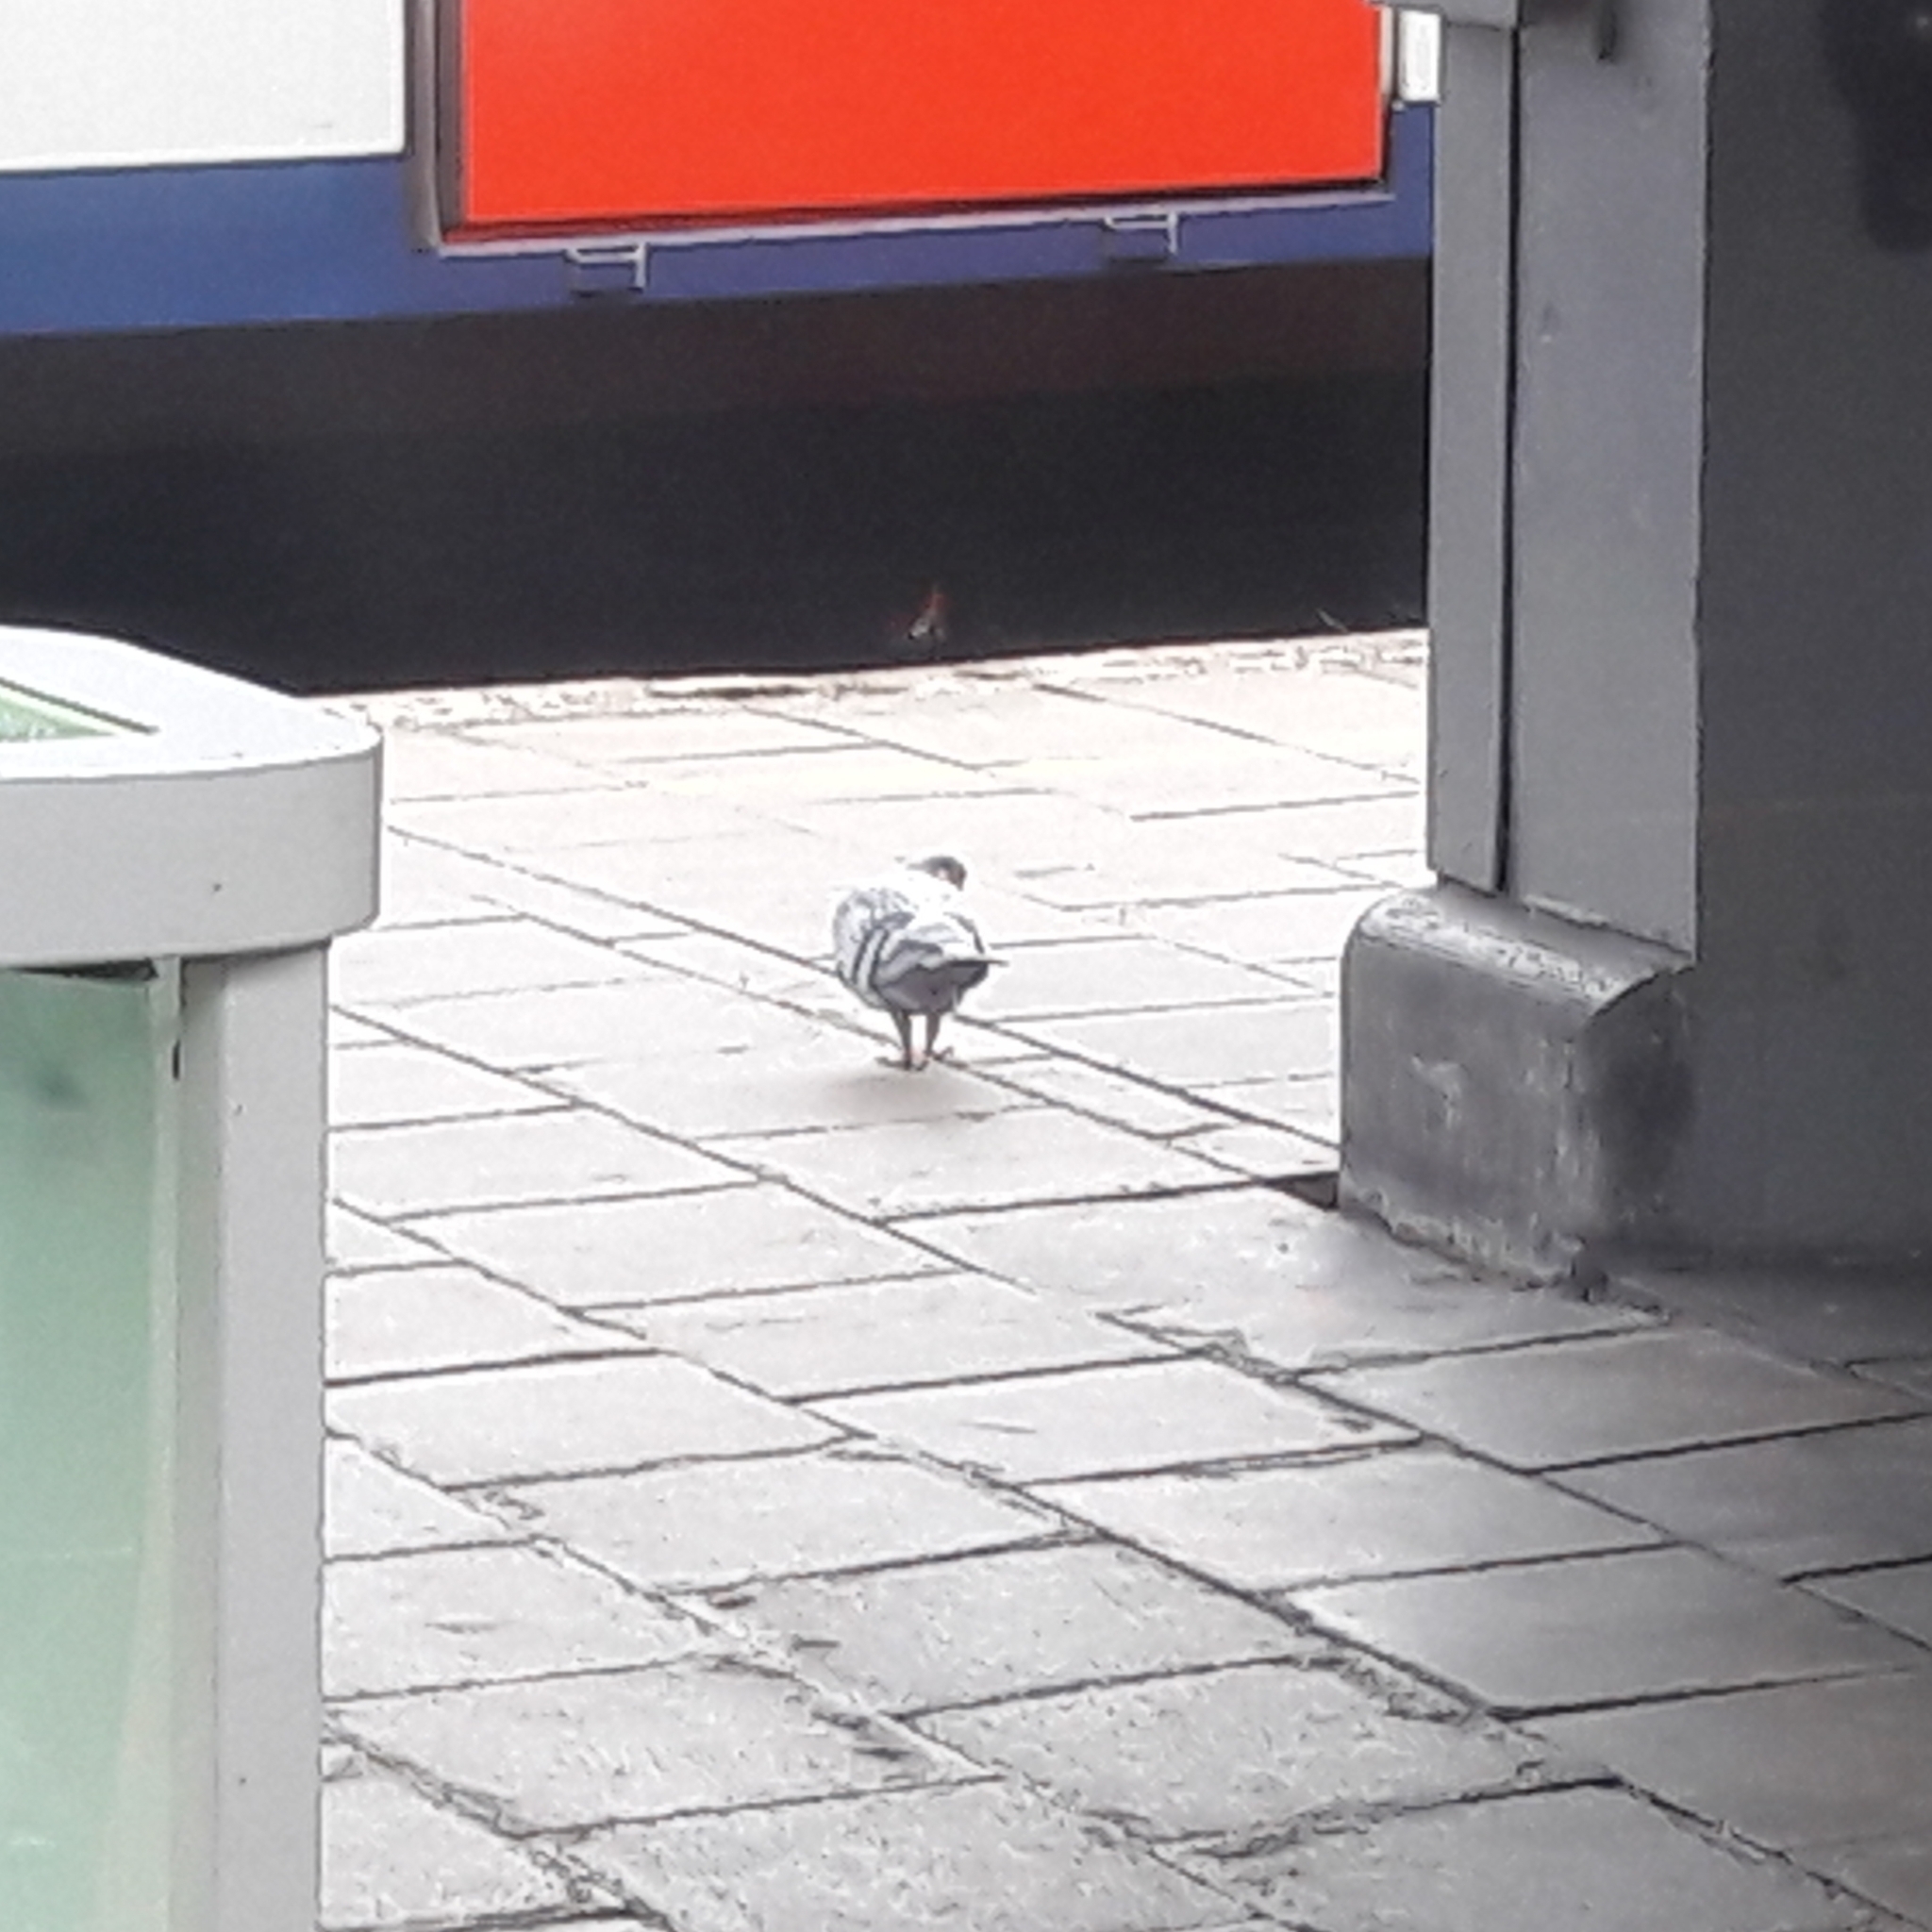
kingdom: Animalia
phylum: Chordata
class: Aves
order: Columbiformes
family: Columbidae
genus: Columba
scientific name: Columba livia
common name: Rock pigeon
